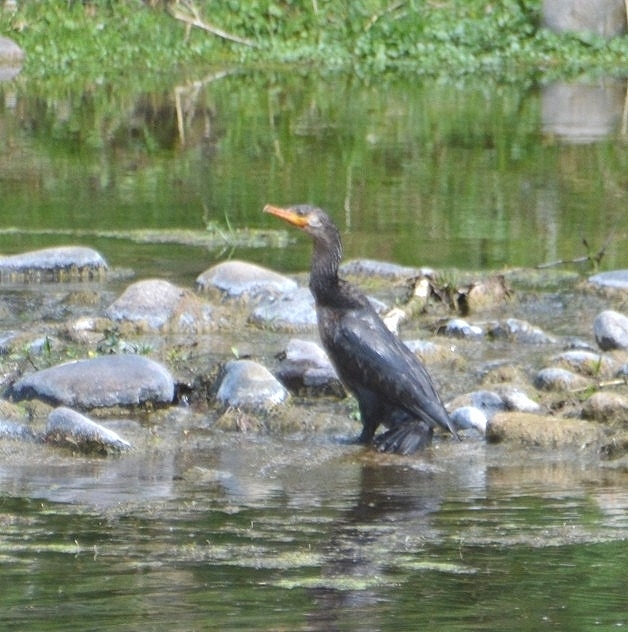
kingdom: Animalia
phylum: Chordata
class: Aves
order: Suliformes
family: Phalacrocoracidae
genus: Phalacrocorax
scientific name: Phalacrocorax brasilianus
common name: Neotropic cormorant
